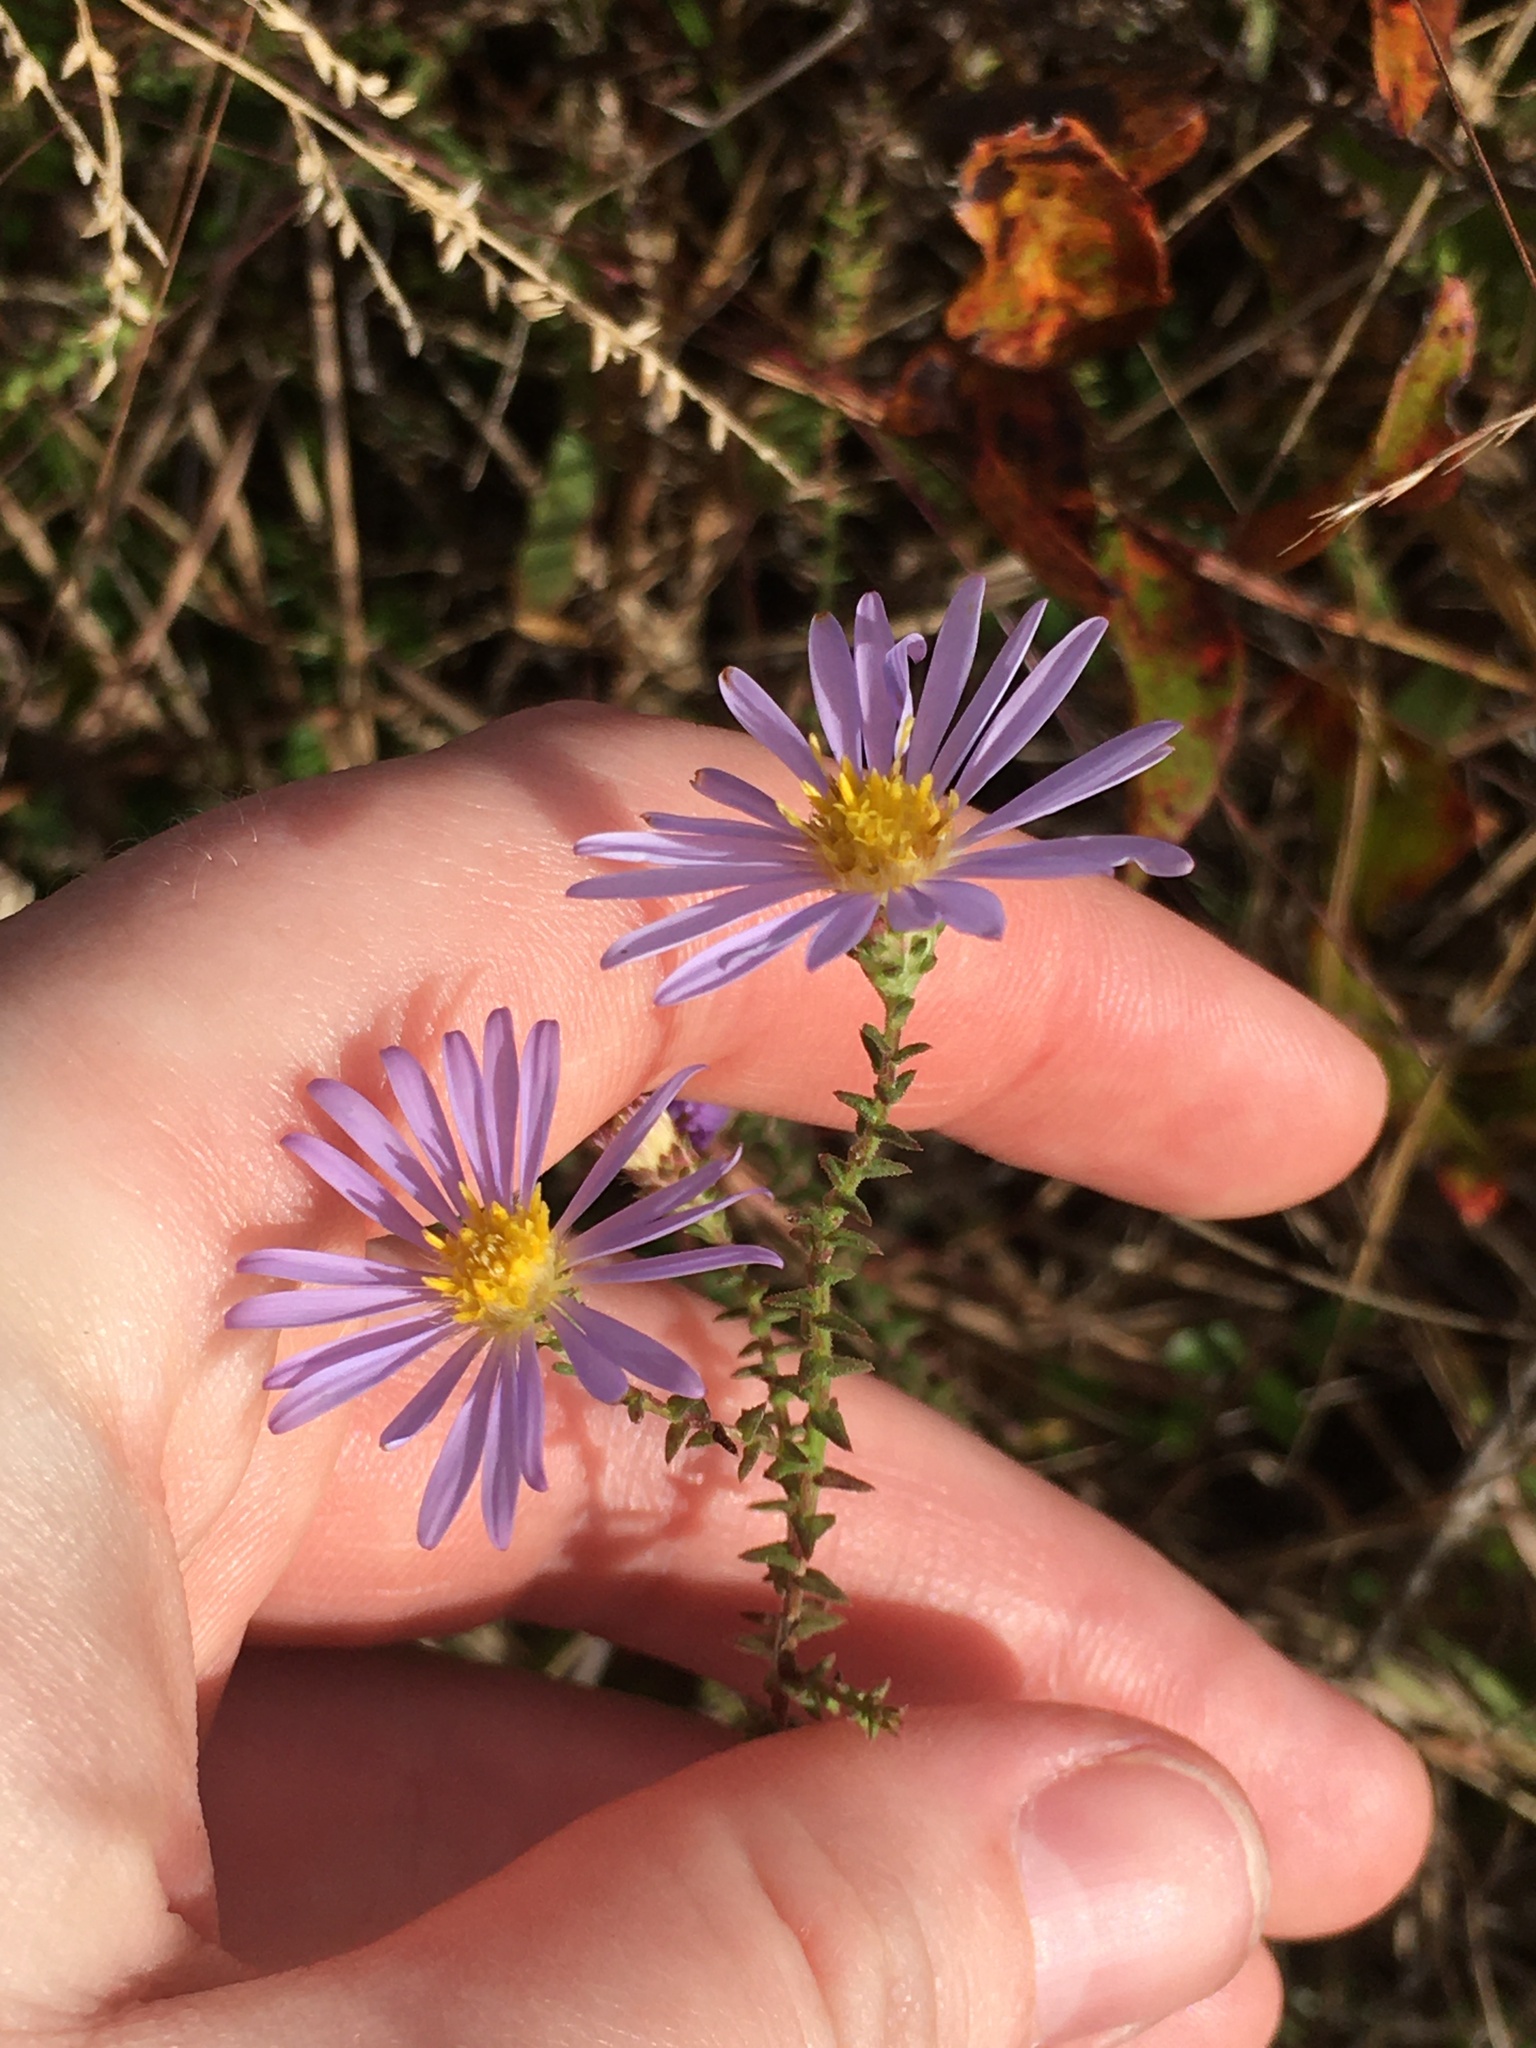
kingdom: Plantae
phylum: Tracheophyta
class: Magnoliopsida
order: Asterales
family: Asteraceae
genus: Symphyotrichum
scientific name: Symphyotrichum walteri
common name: Walter's aster
